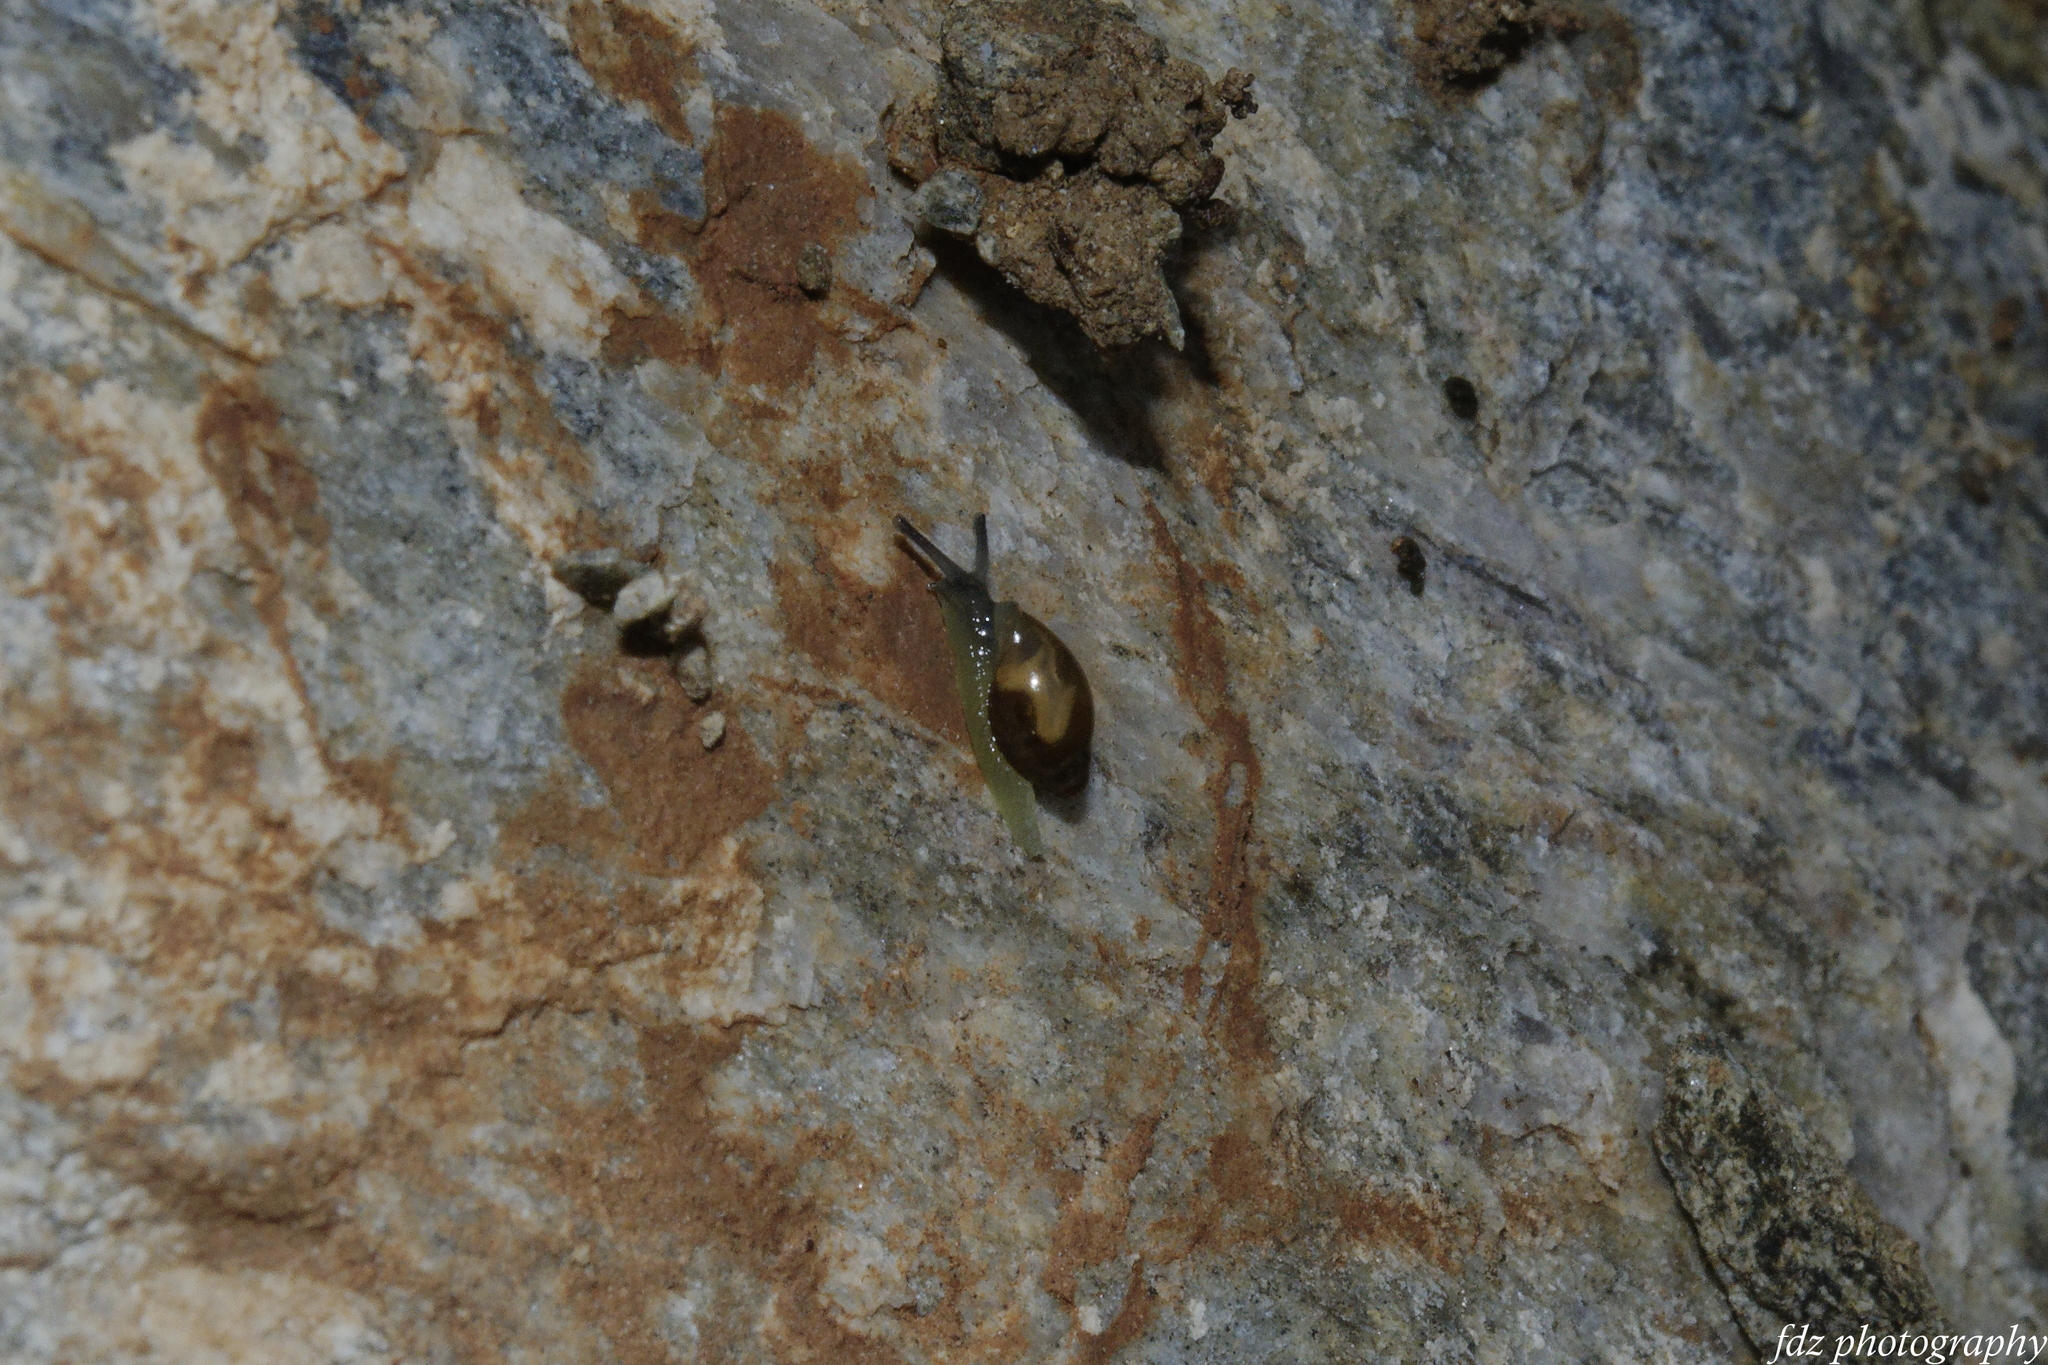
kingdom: Animalia
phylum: Mollusca
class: Gastropoda
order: Stylommatophora
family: Ferussaciidae
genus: Ferussacia
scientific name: Ferussacia folliculum
